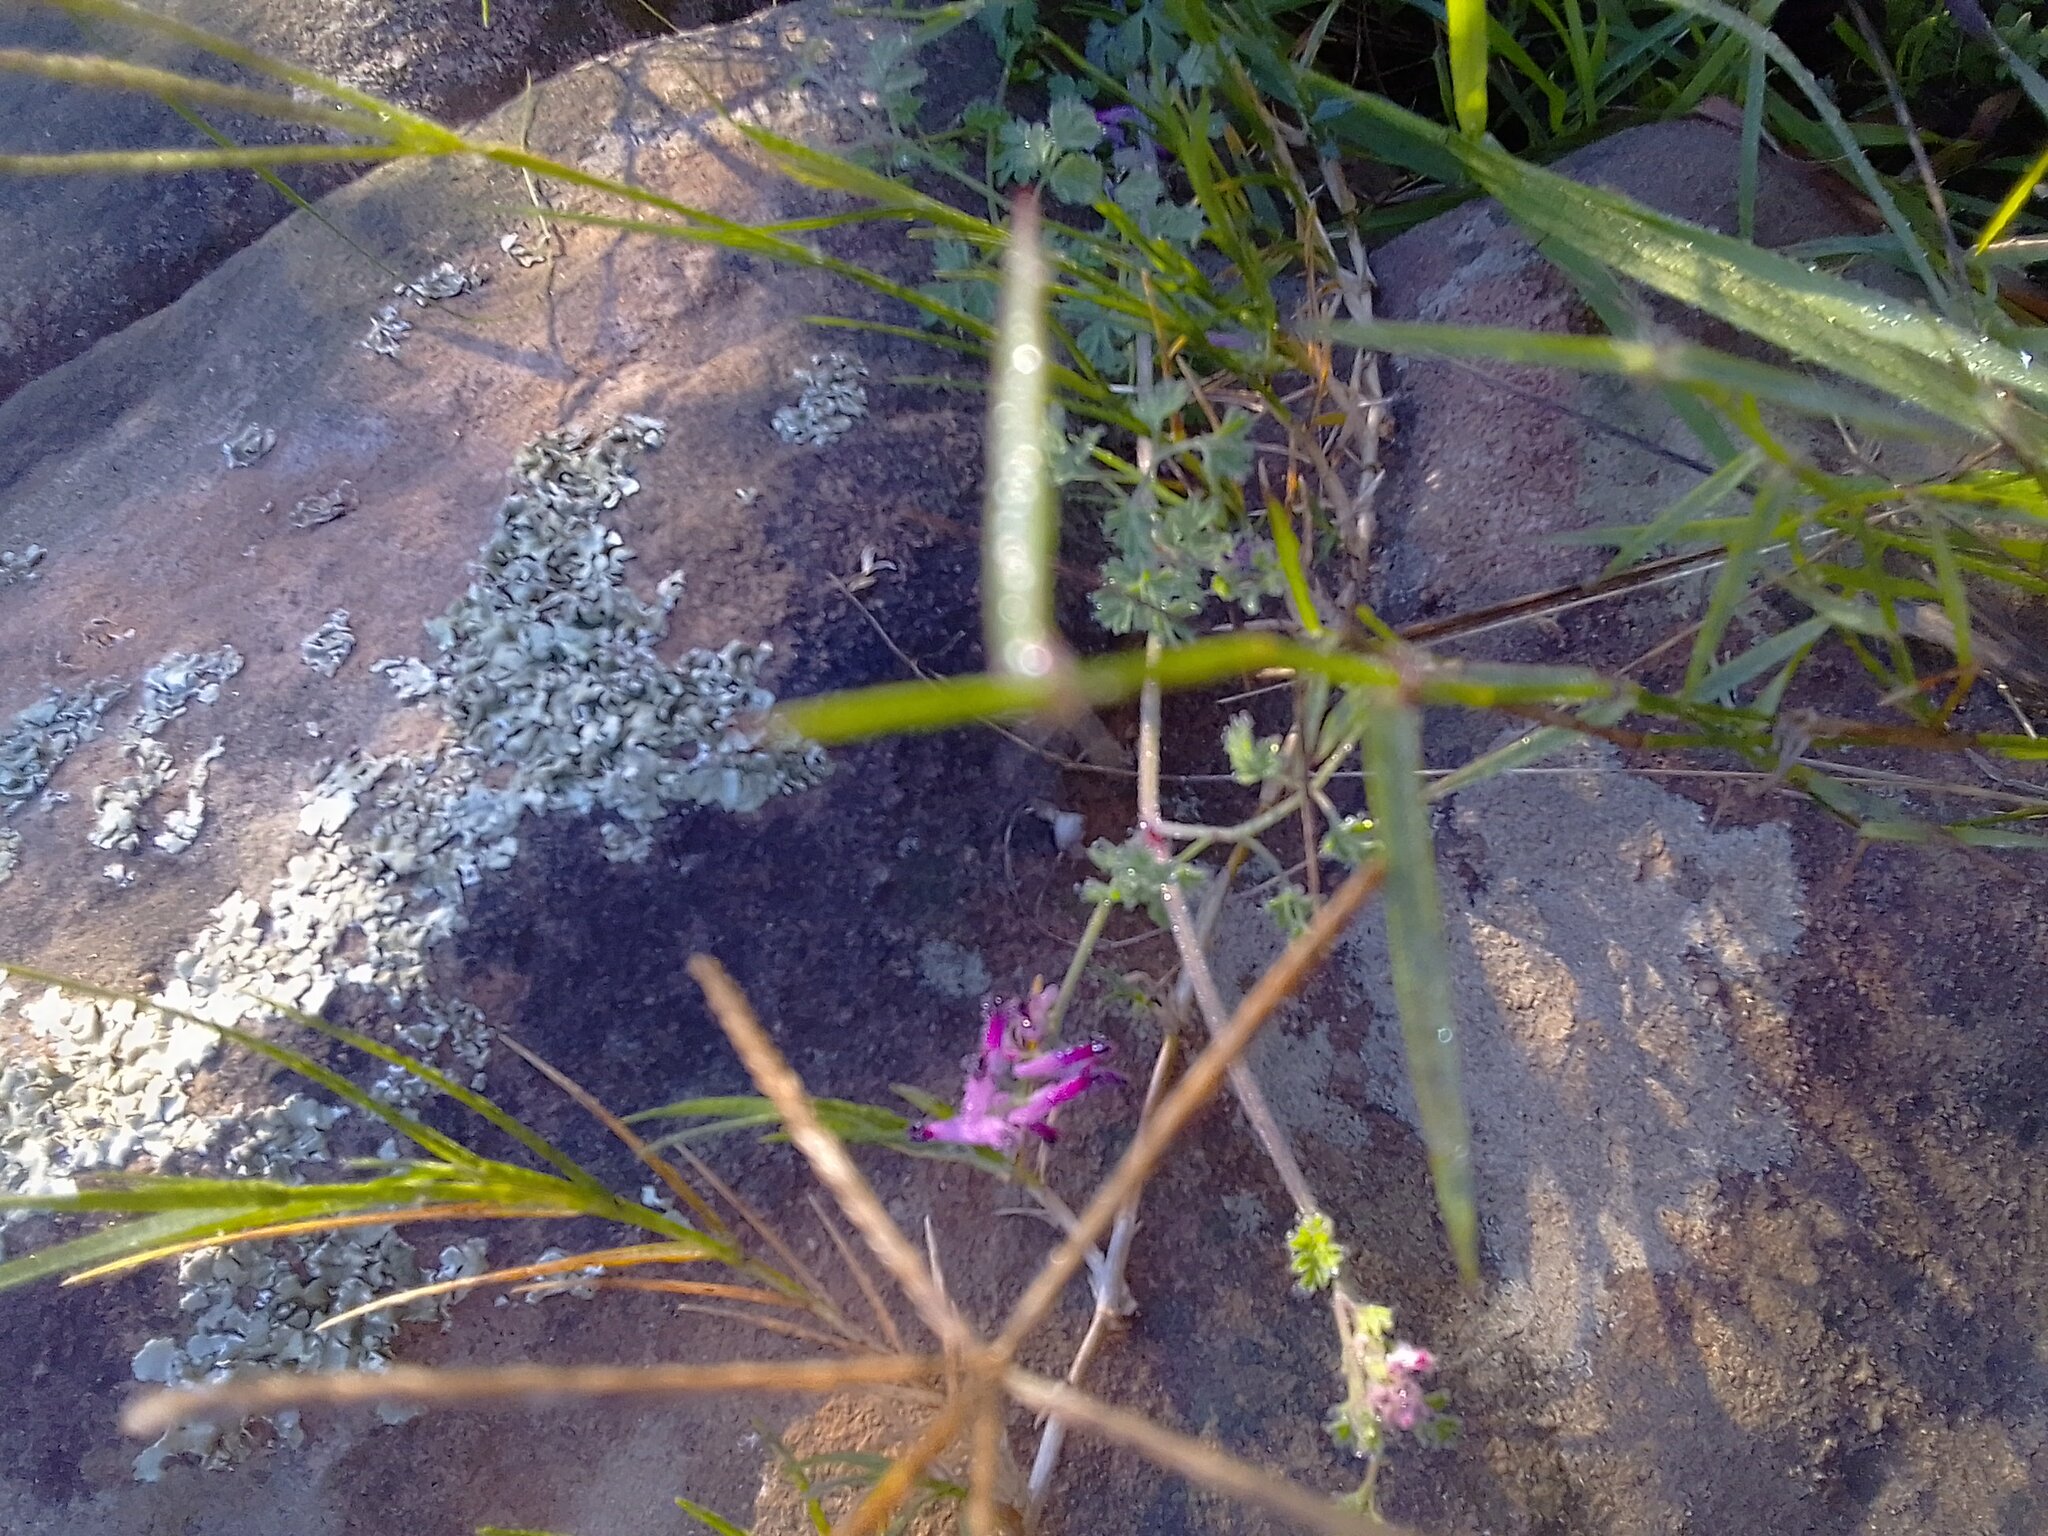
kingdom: Plantae
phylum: Tracheophyta
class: Magnoliopsida
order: Ranunculales
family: Papaveraceae
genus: Fumaria
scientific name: Fumaria muralis
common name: Common ramping-fumitory
